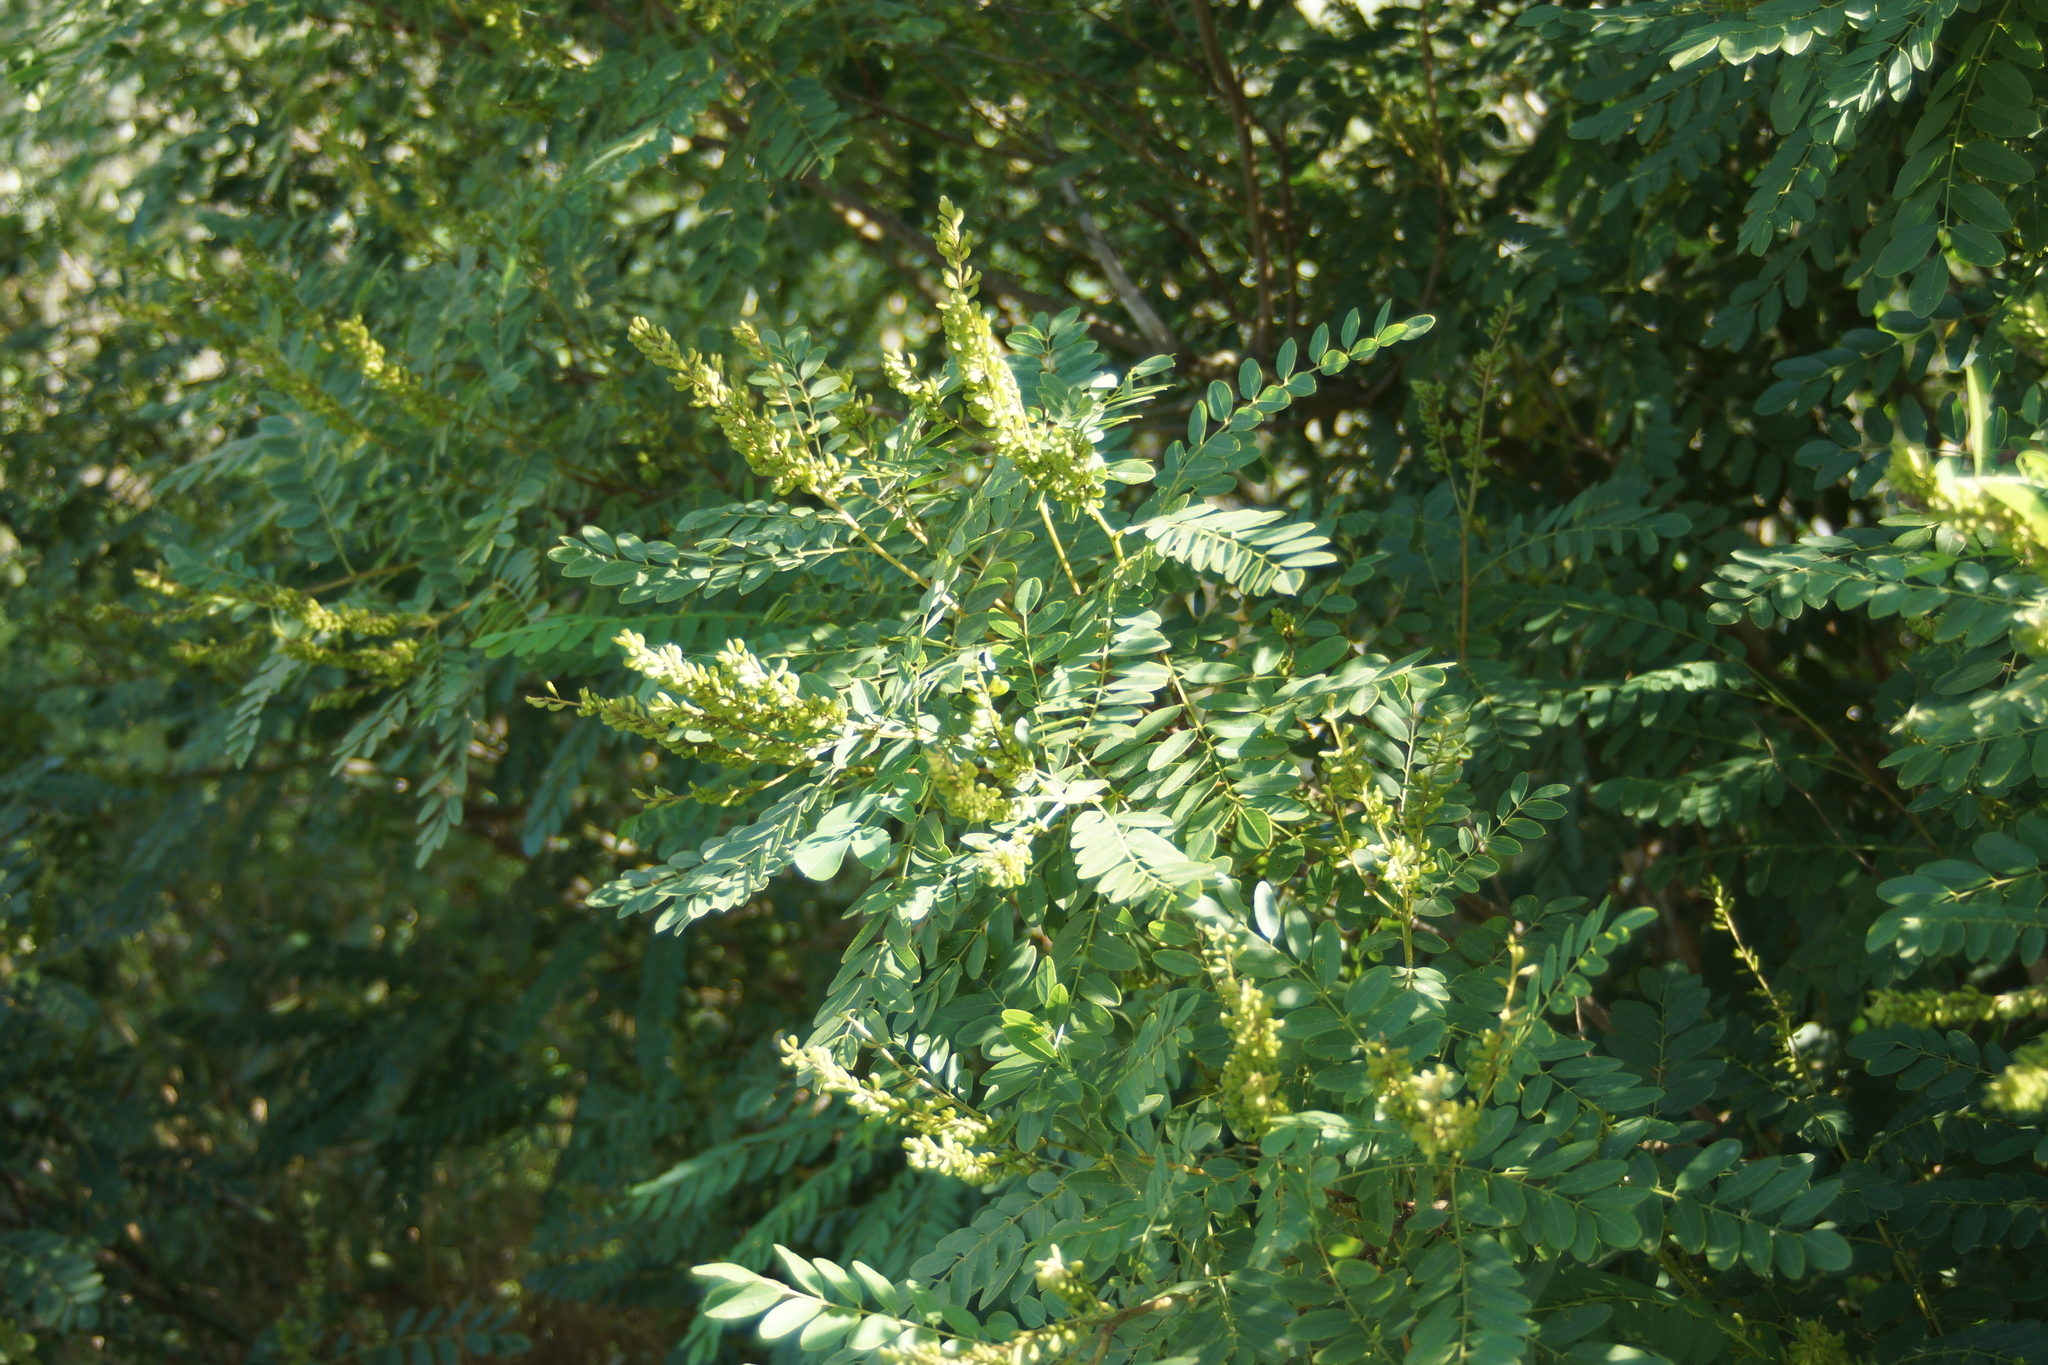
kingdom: Plantae
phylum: Tracheophyta
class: Magnoliopsida
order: Fabales
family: Fabaceae
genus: Amorpha
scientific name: Amorpha fruticosa
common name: False indigo
